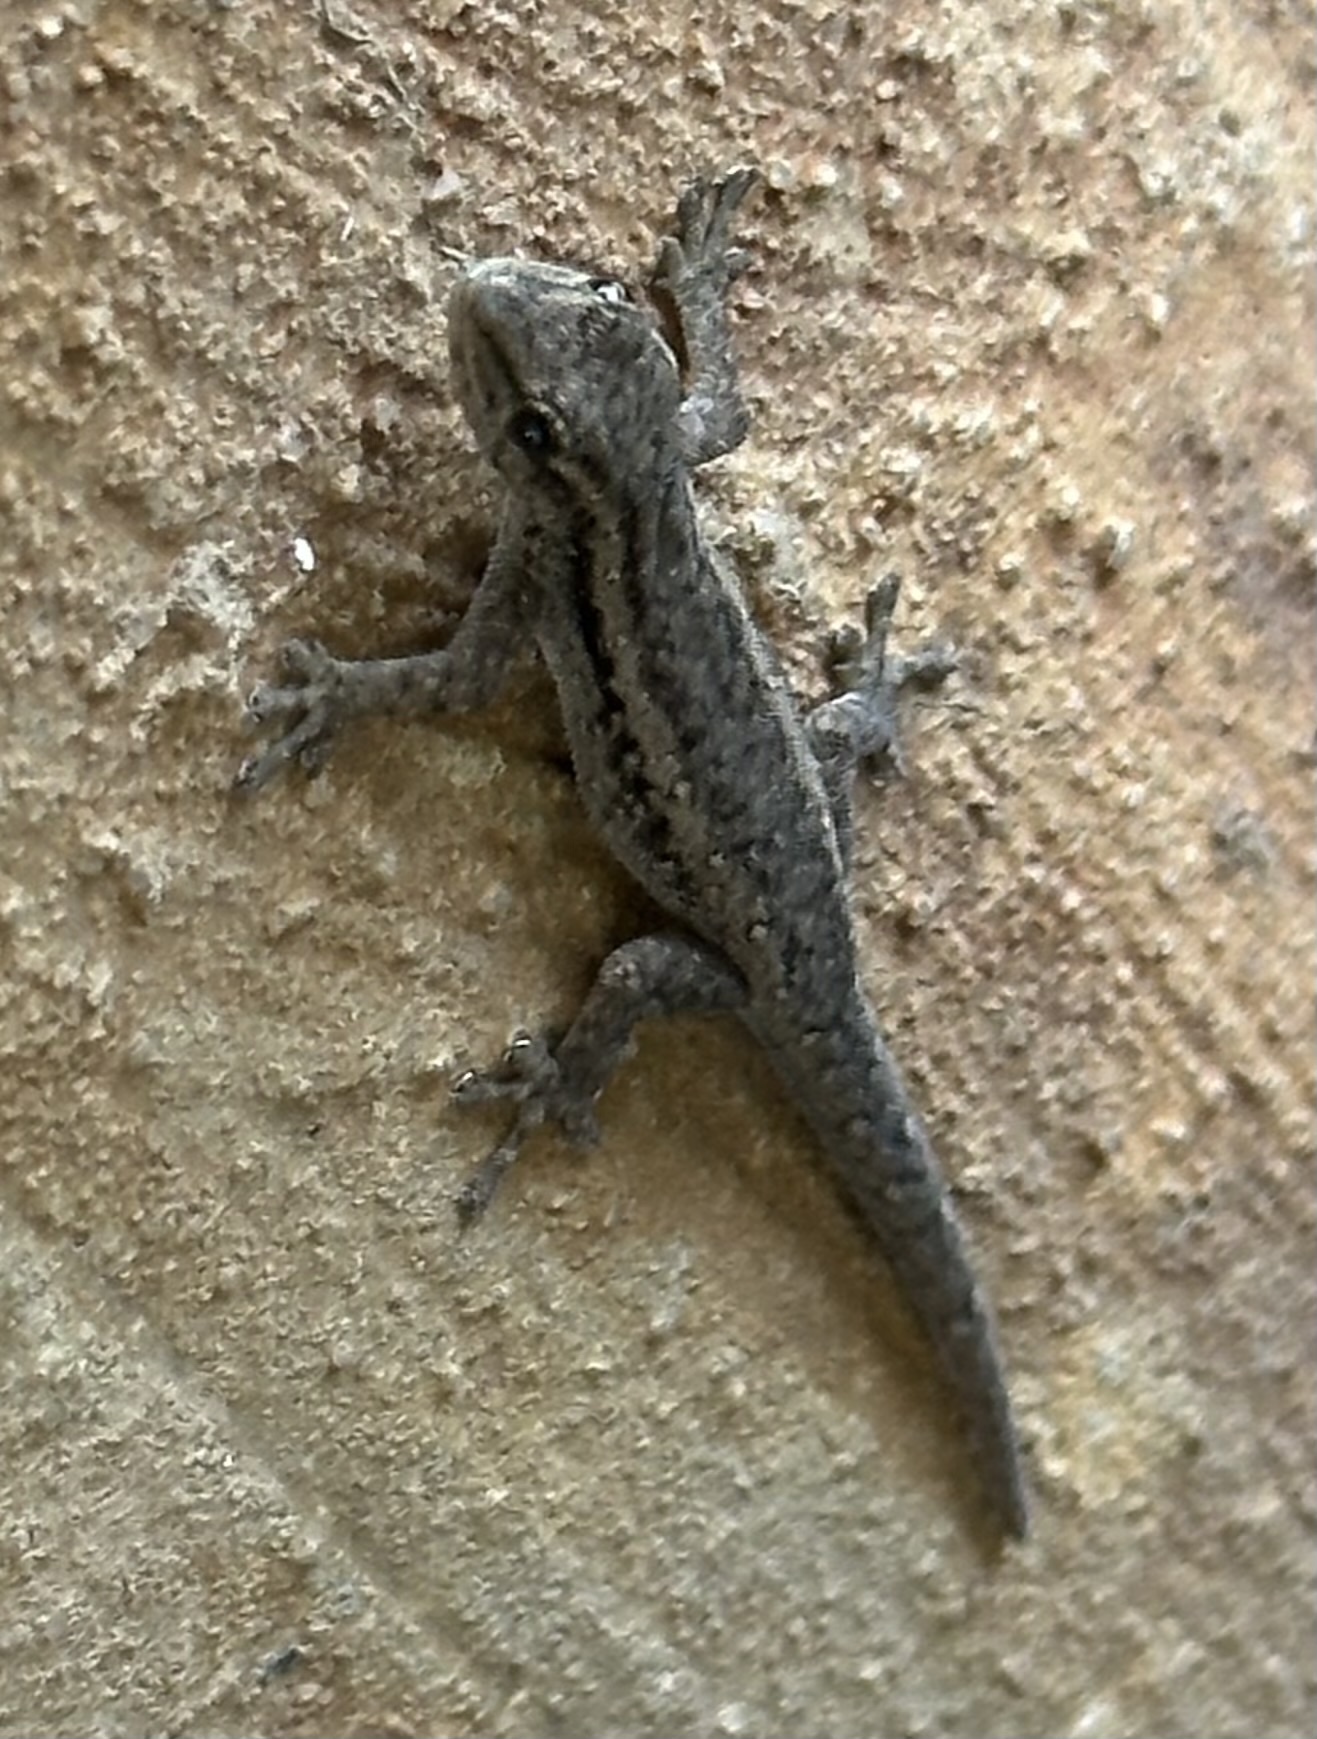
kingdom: Animalia
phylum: Chordata
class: Squamata
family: Gekkonidae
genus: Lygodactylus
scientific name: Lygodactylus capensis
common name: Cape dwarf gecko
